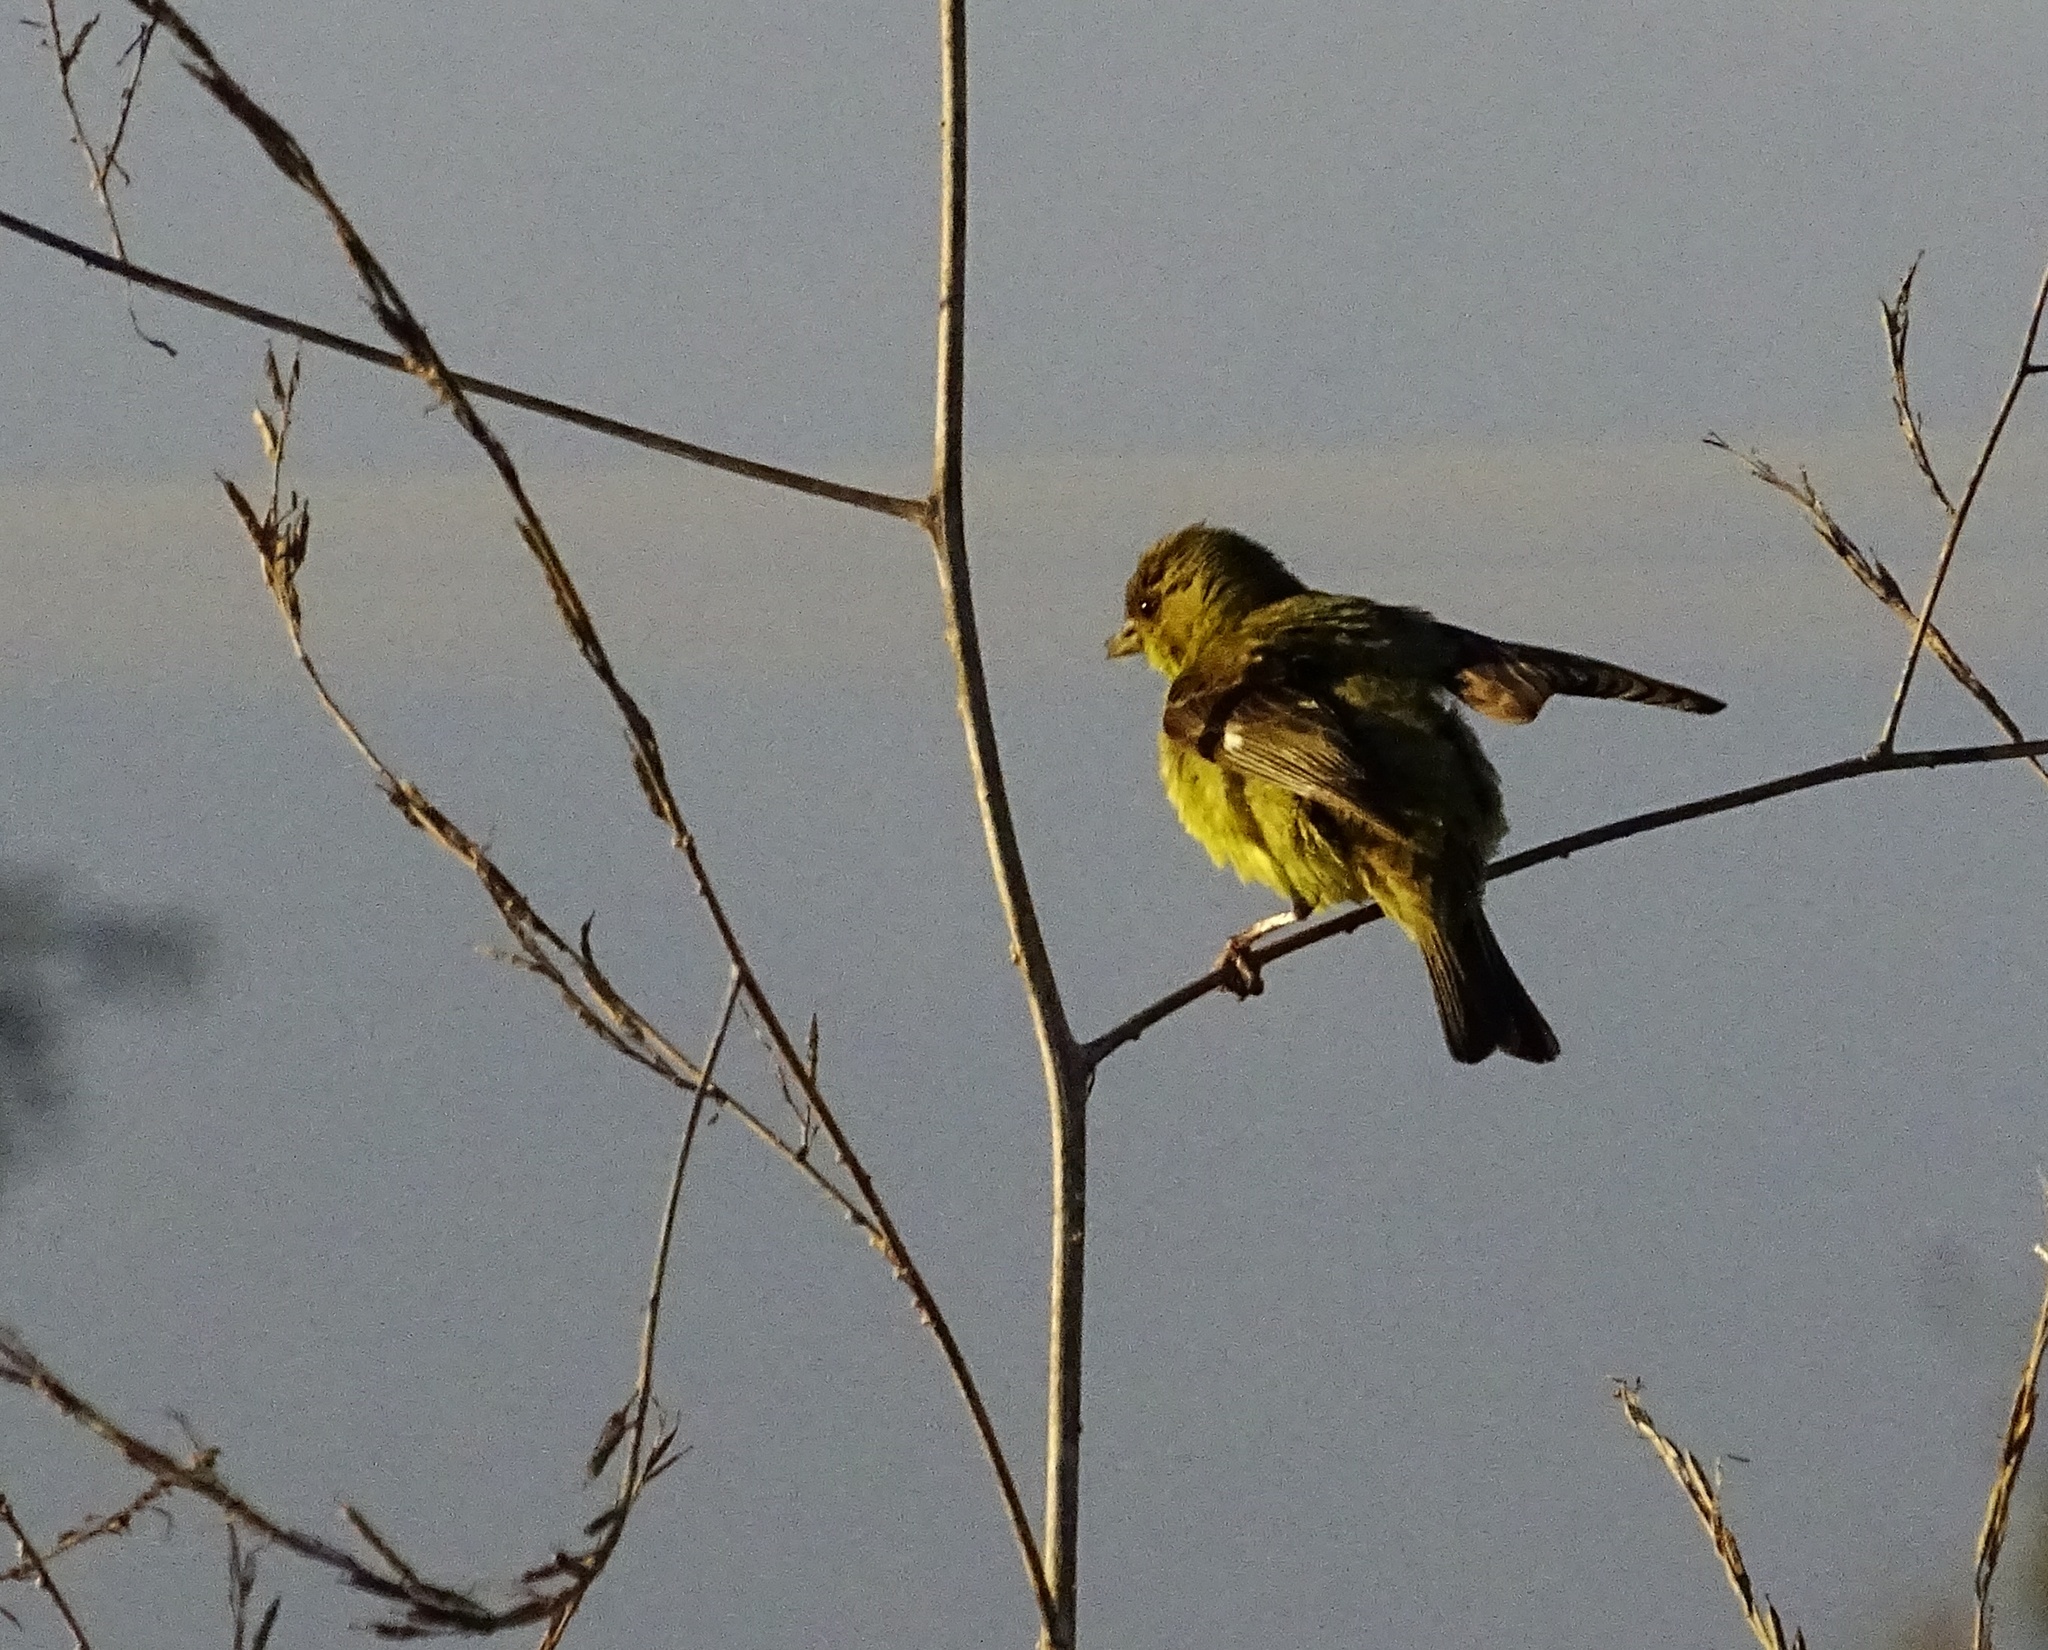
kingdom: Animalia
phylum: Chordata
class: Aves
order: Passeriformes
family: Fringillidae
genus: Spinus
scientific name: Spinus psaltria
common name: Lesser goldfinch
